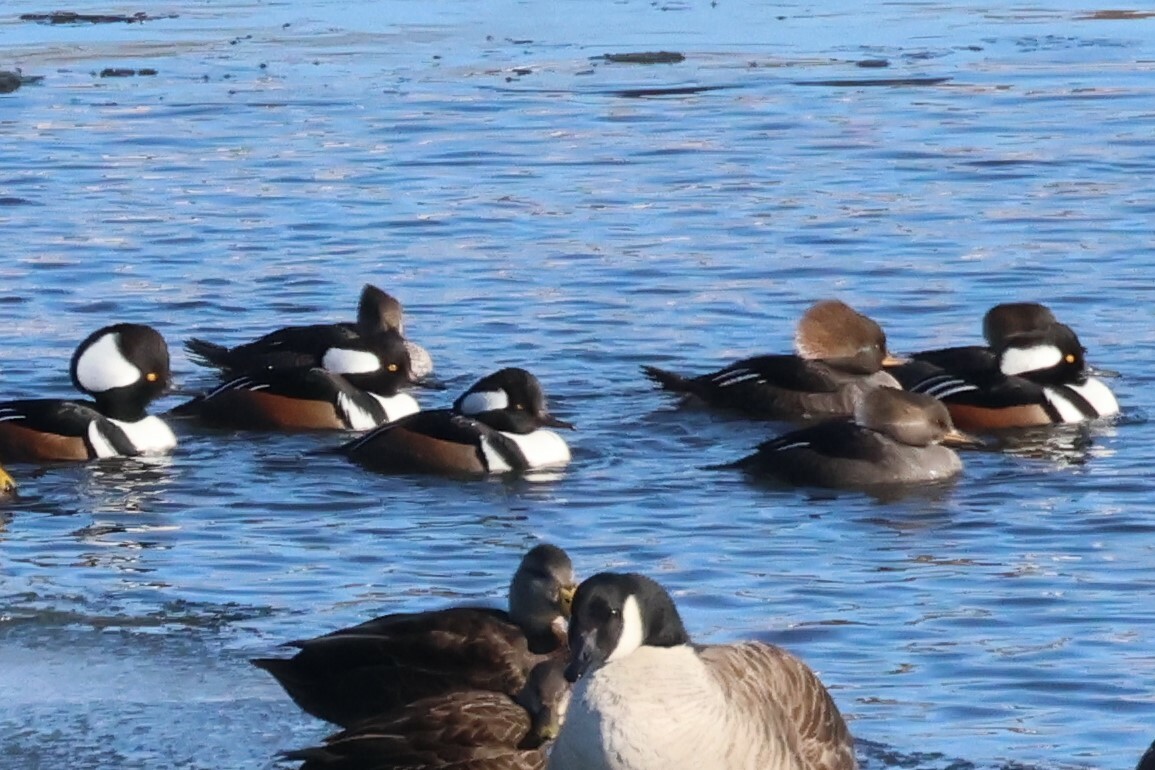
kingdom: Animalia
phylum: Chordata
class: Aves
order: Anseriformes
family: Anatidae
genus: Lophodytes
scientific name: Lophodytes cucullatus
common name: Hooded merganser
